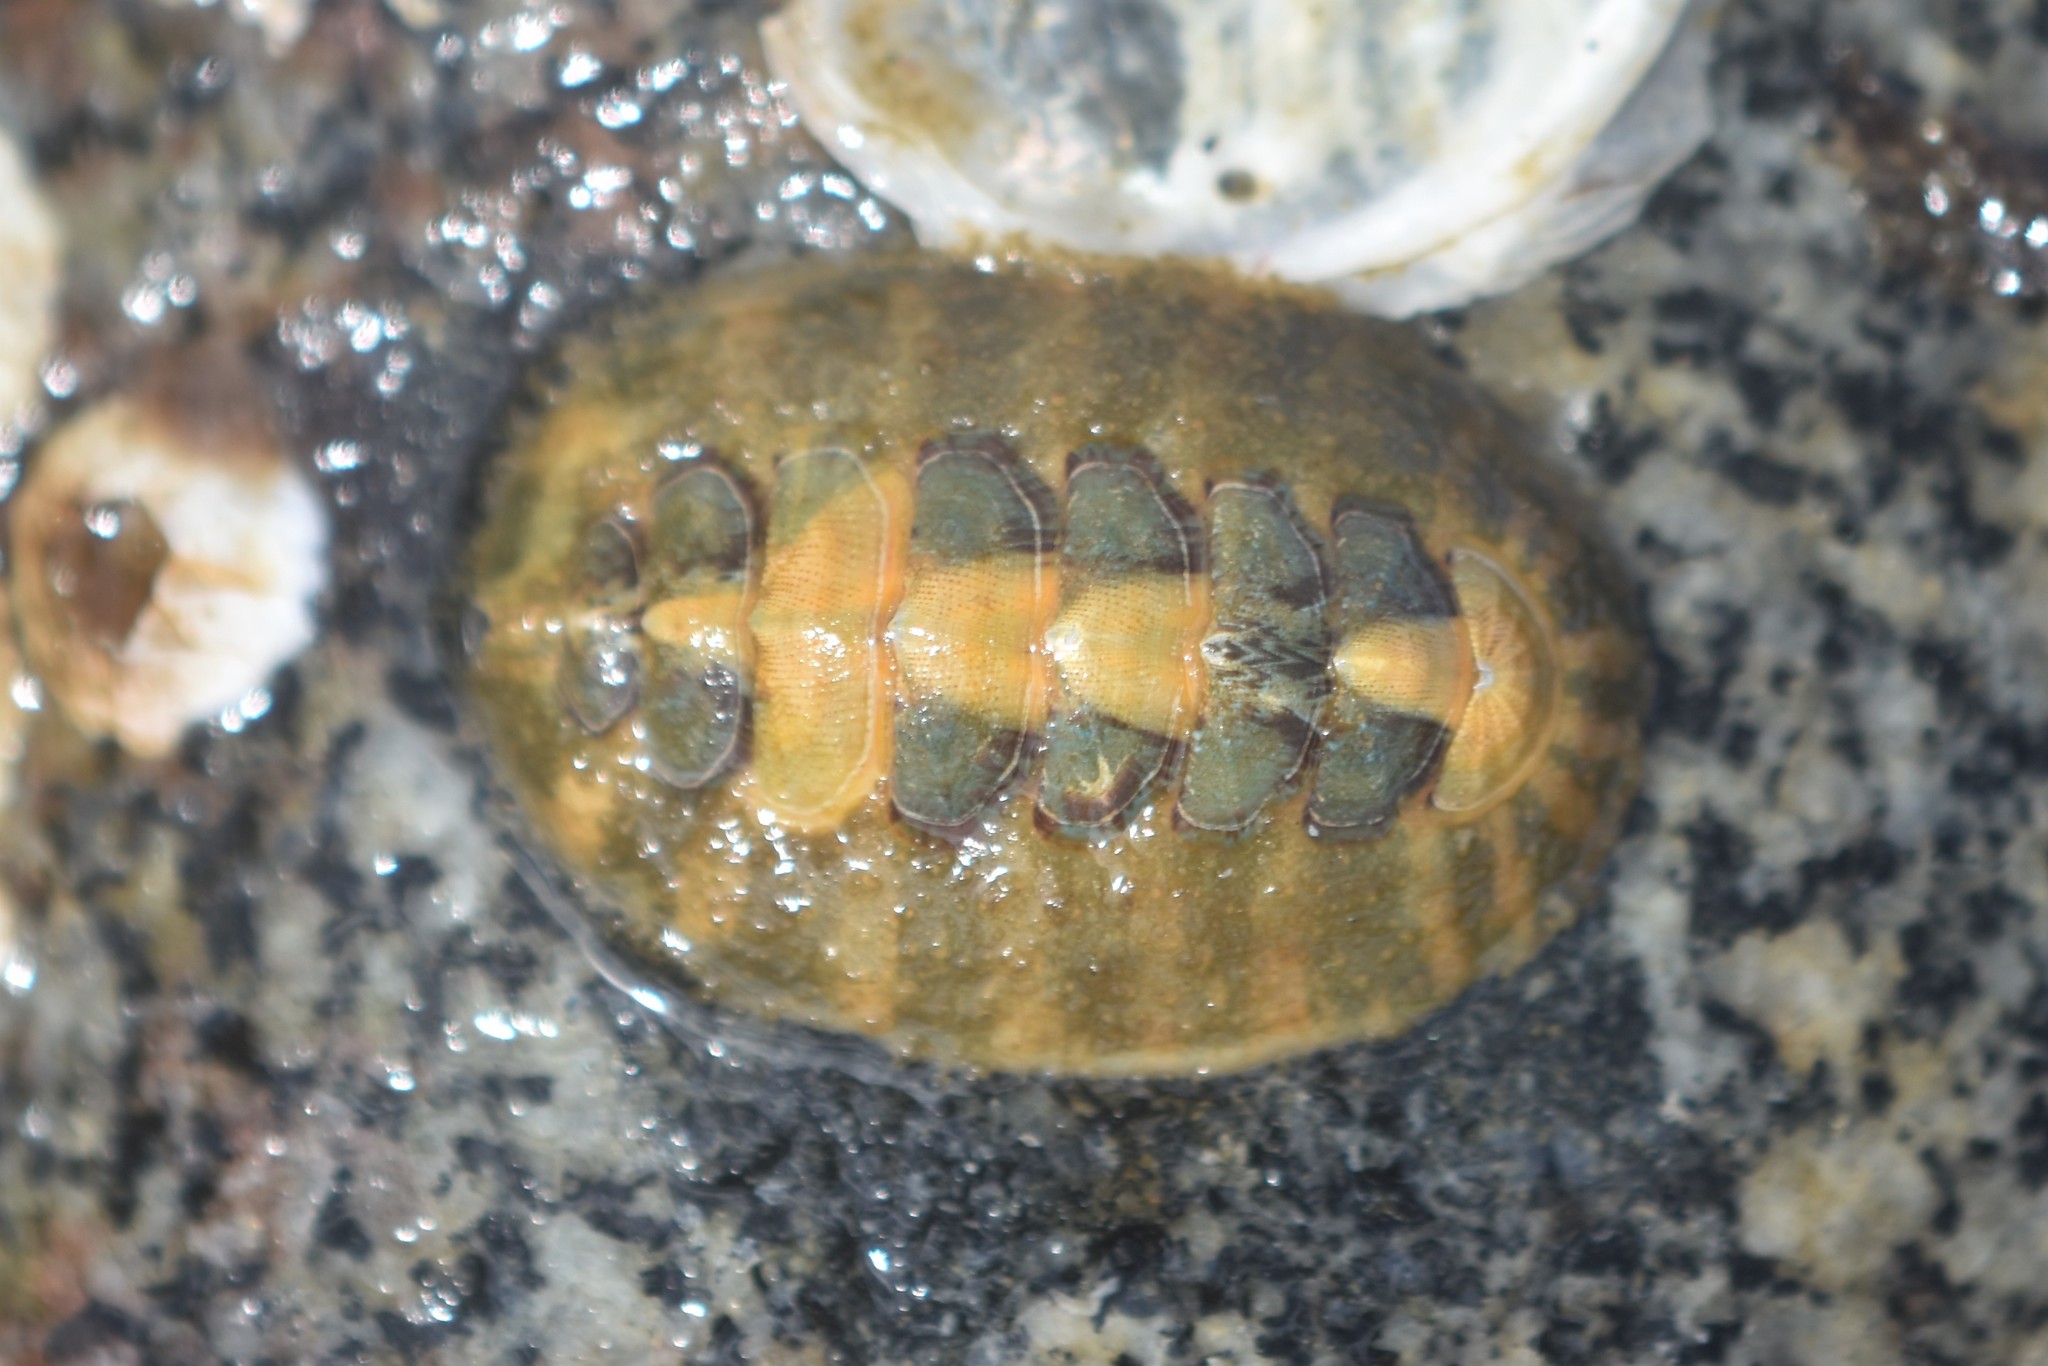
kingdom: Animalia
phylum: Mollusca
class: Polyplacophora
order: Chitonida
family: Mopaliidae
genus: Mopalia
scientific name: Mopalia swanii
